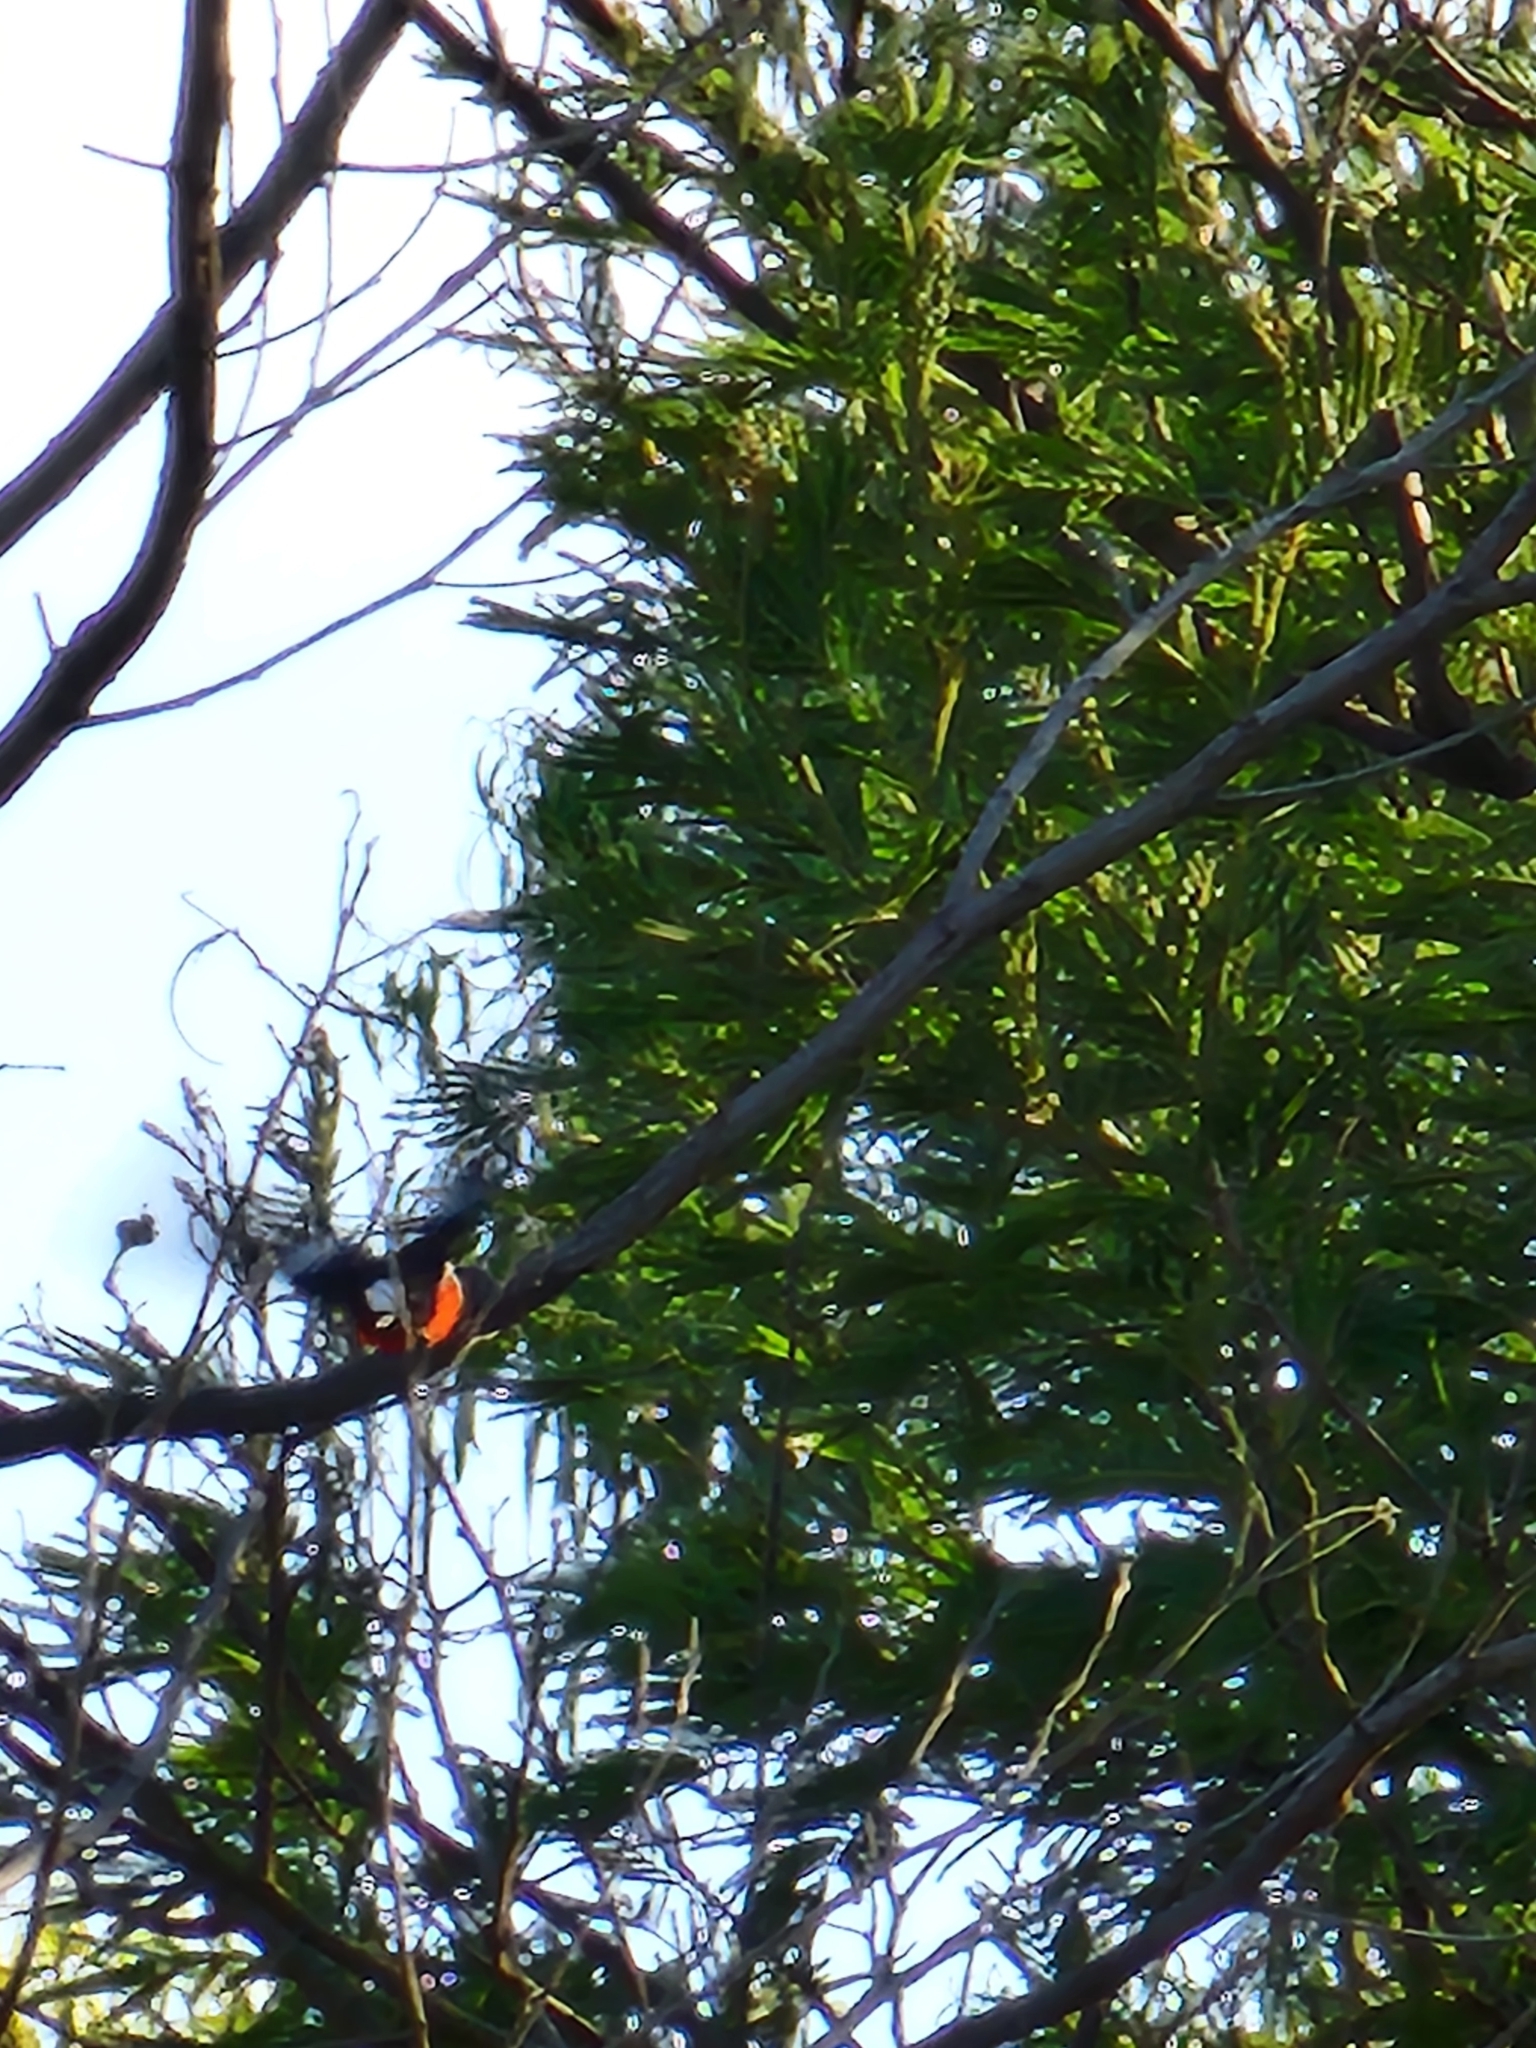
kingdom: Animalia
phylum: Chordata
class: Aves
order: Passeriformes
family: Petroicidae
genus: Petroica
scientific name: Petroica boodang
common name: Scarlet robin
